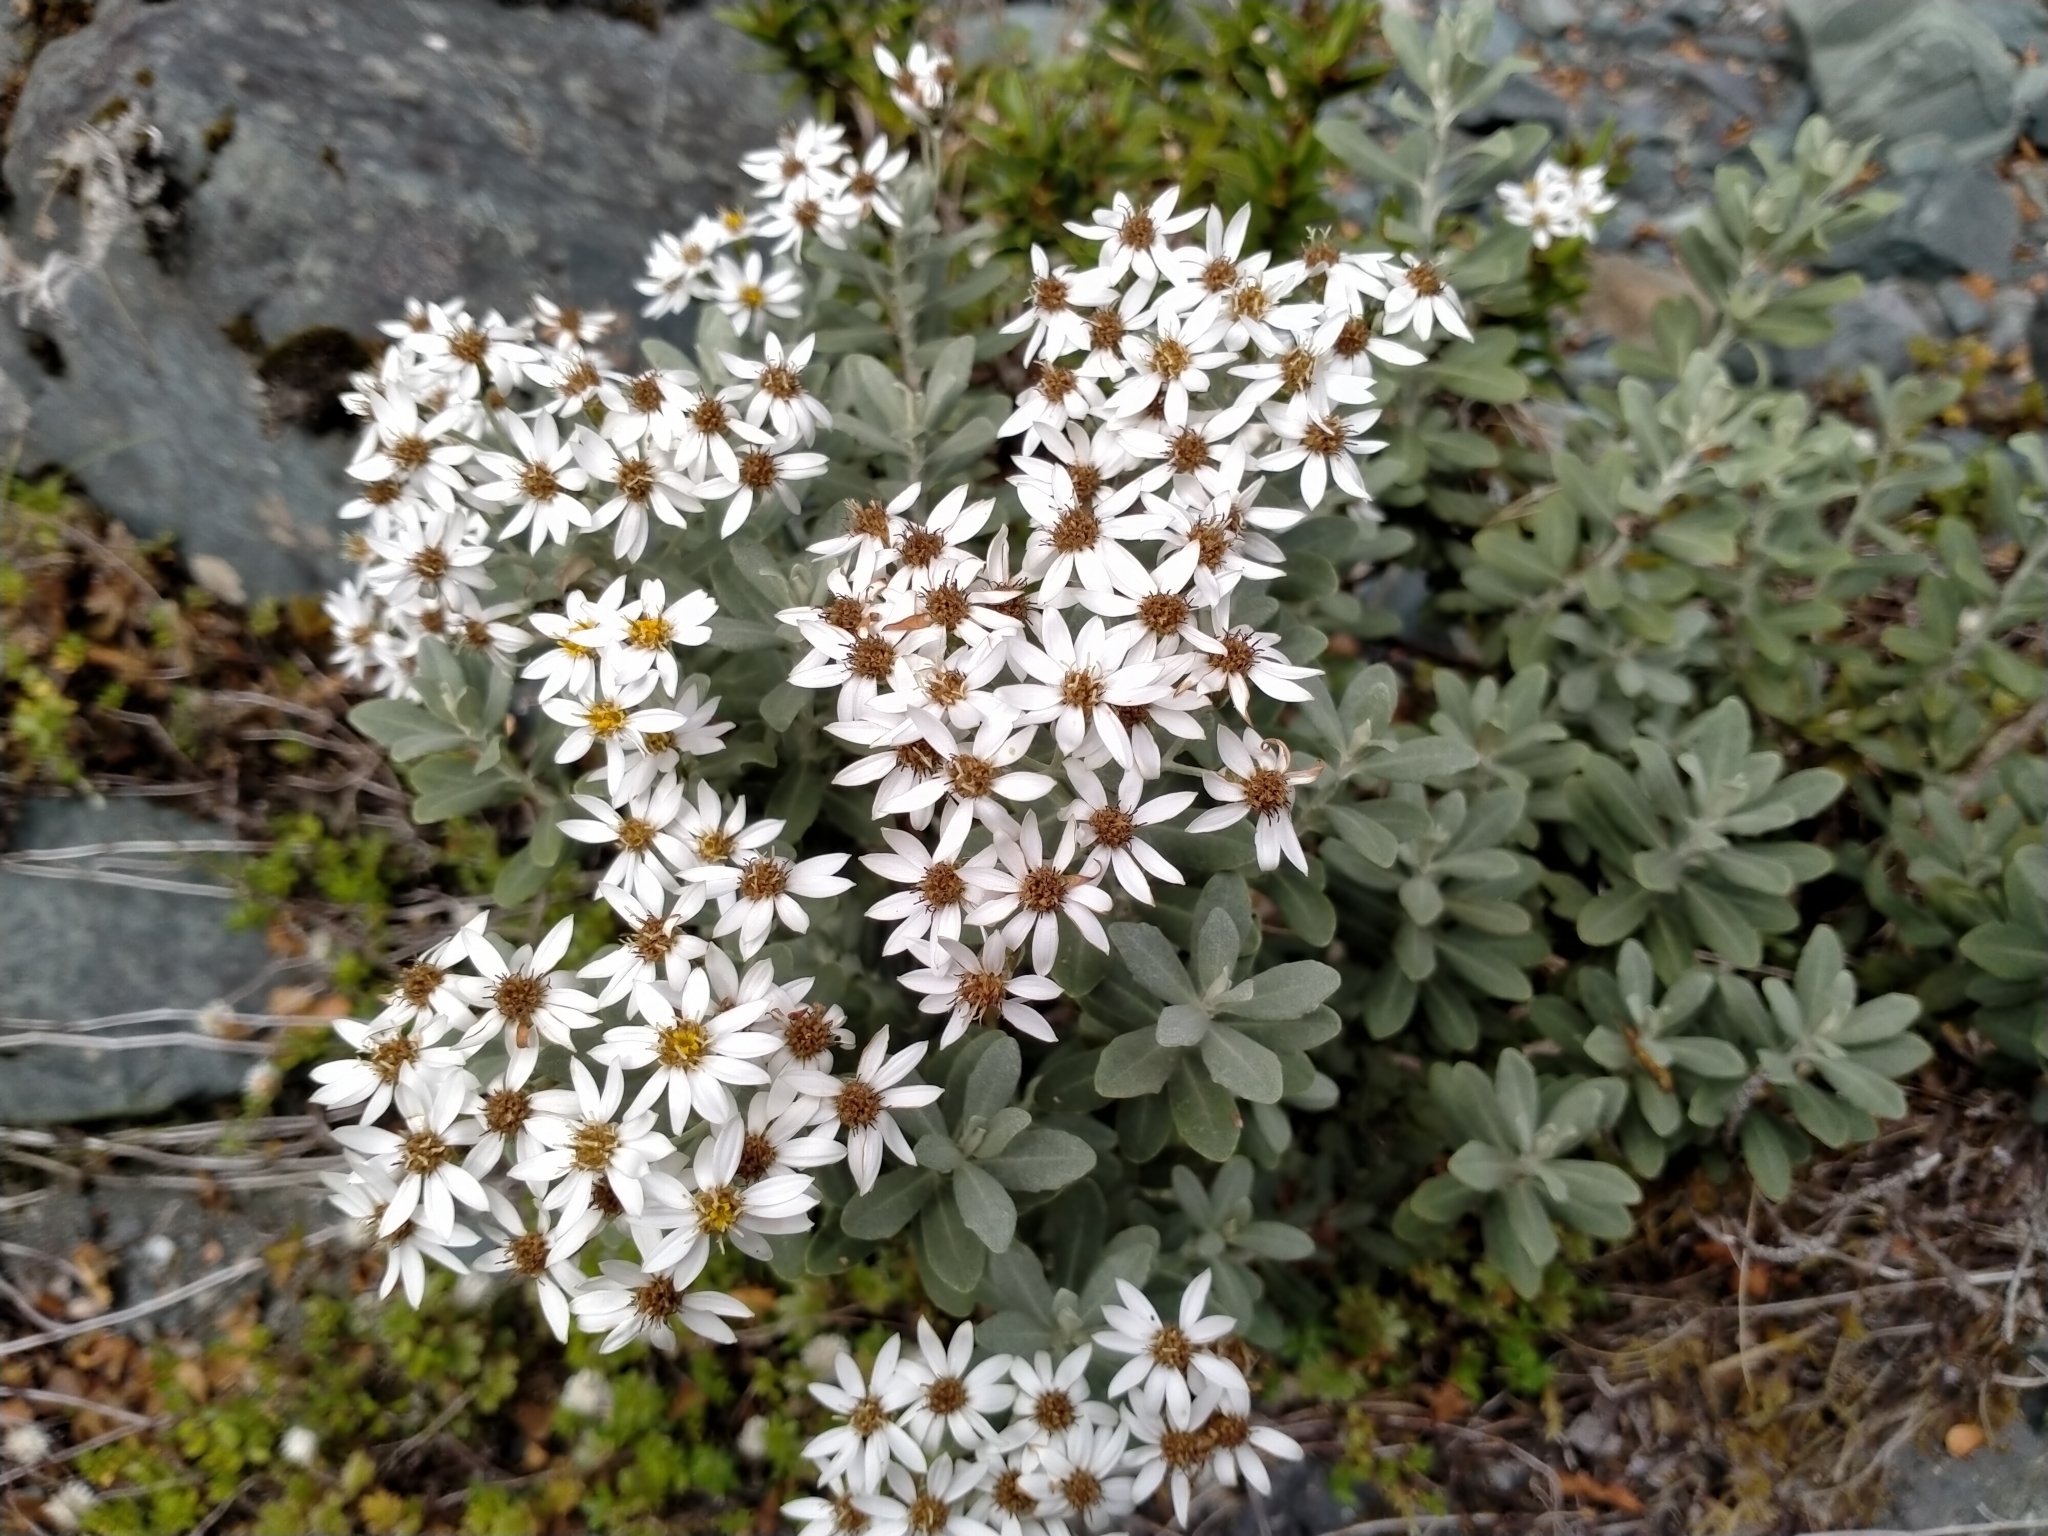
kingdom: Plantae
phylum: Tracheophyta
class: Magnoliopsida
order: Asterales
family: Asteraceae
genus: Olearia
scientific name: Olearia moschata
